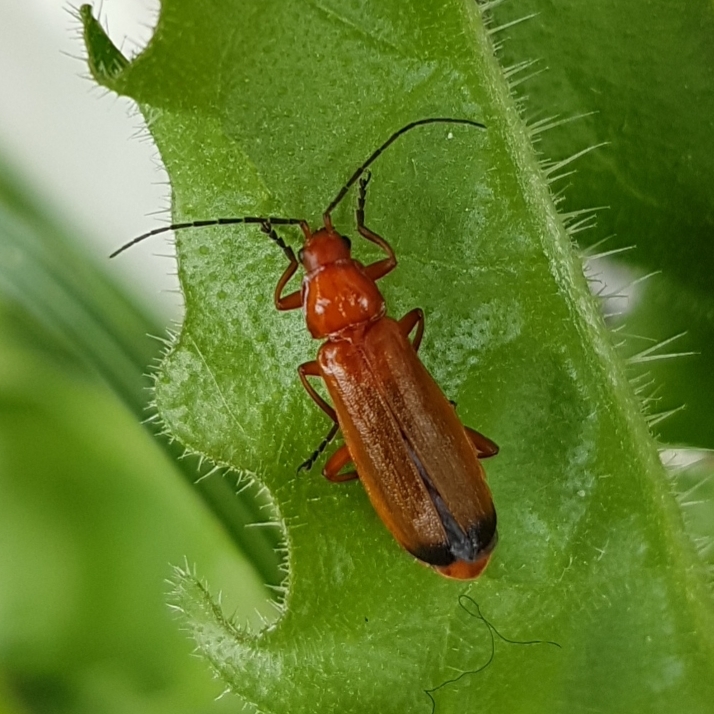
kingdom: Animalia
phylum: Arthropoda
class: Insecta
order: Coleoptera
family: Cantharidae
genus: Rhagonycha
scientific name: Rhagonycha fulva
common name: Common red soldier beetle
